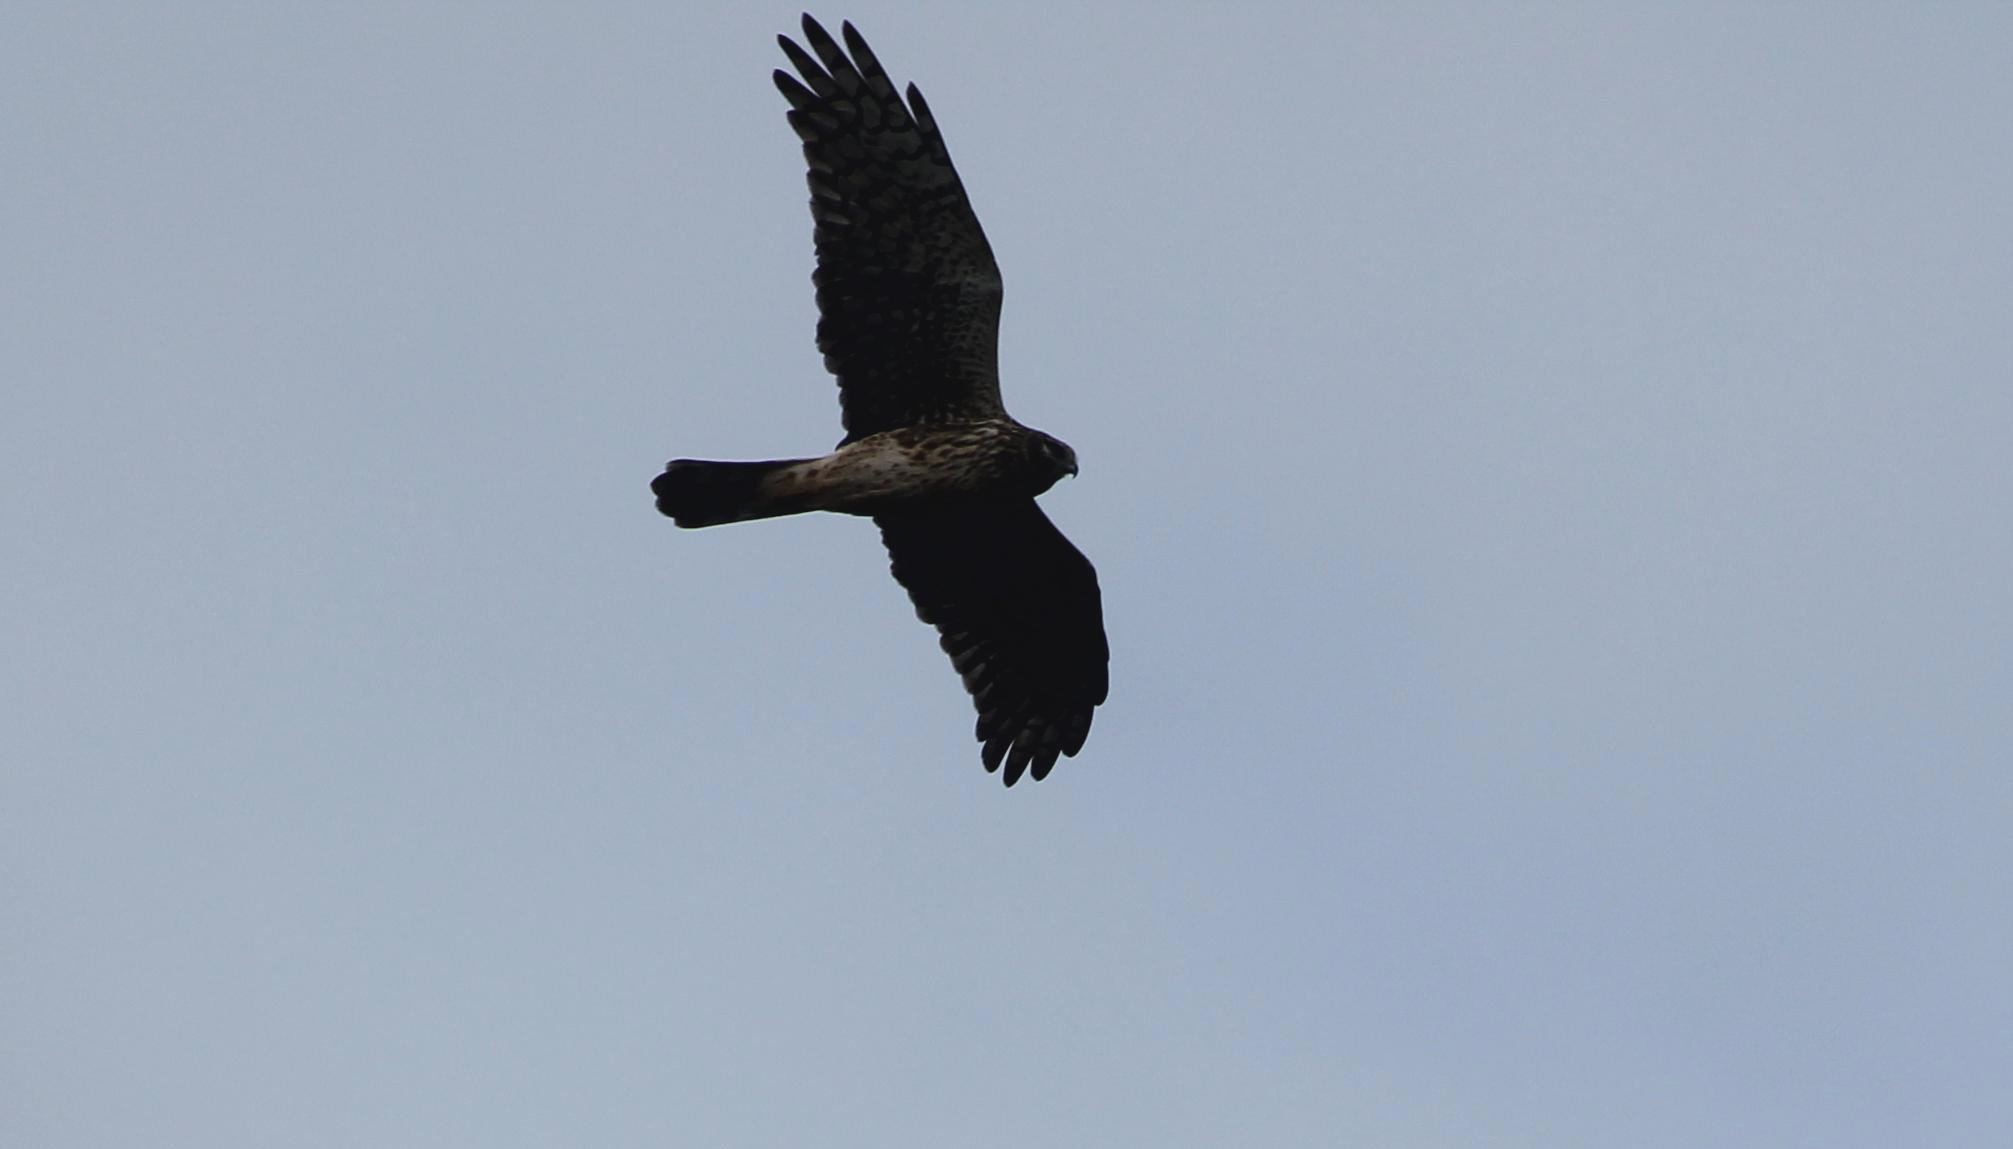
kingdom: Animalia
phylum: Chordata
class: Aves
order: Accipitriformes
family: Accipitridae
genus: Circus
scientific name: Circus cyaneus
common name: Hen harrier
